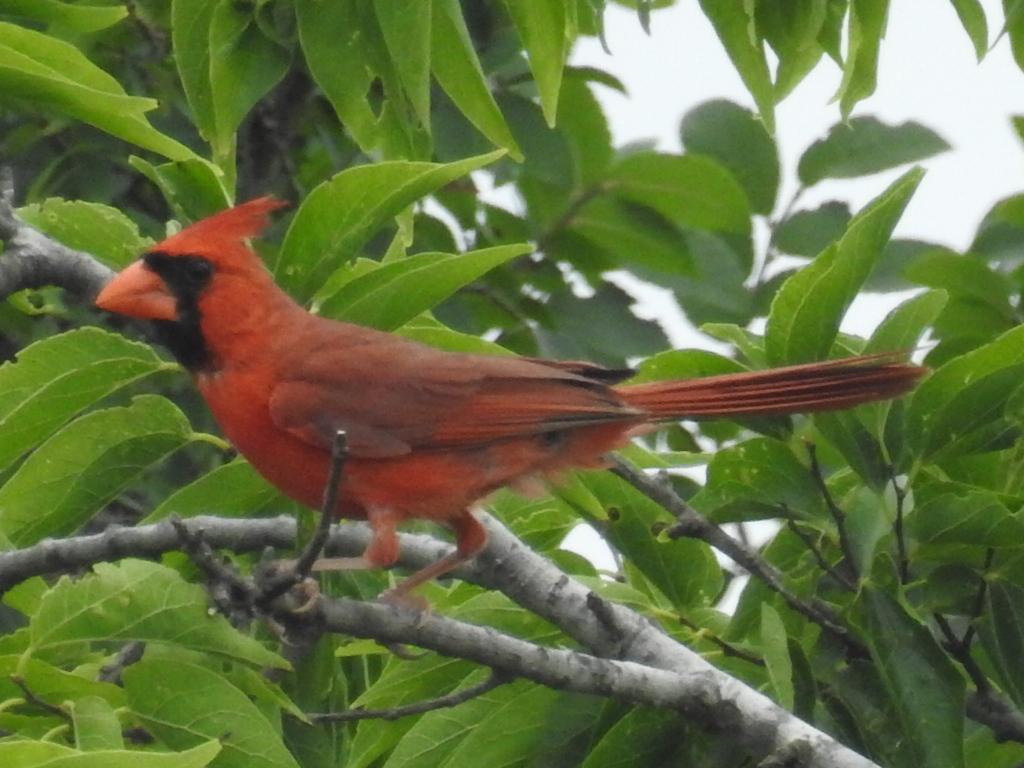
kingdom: Animalia
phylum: Chordata
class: Aves
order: Passeriformes
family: Cardinalidae
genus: Cardinalis
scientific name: Cardinalis cardinalis
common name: Northern cardinal
